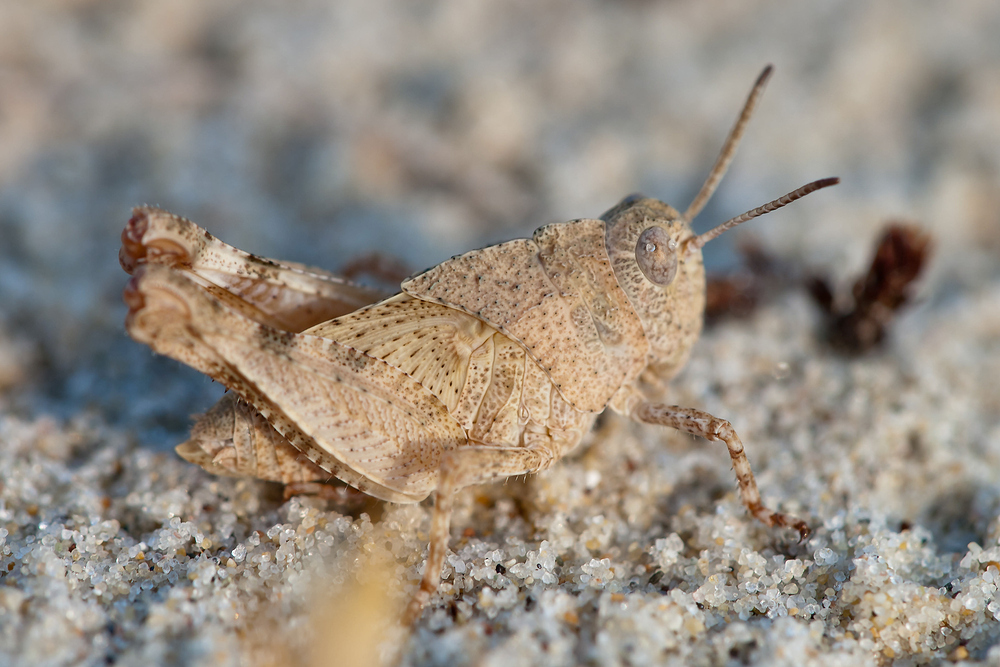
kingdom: Animalia
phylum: Arthropoda
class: Insecta
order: Orthoptera
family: Acrididae
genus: Oedipoda
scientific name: Oedipoda caerulescens
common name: Blue-winged grasshopper
